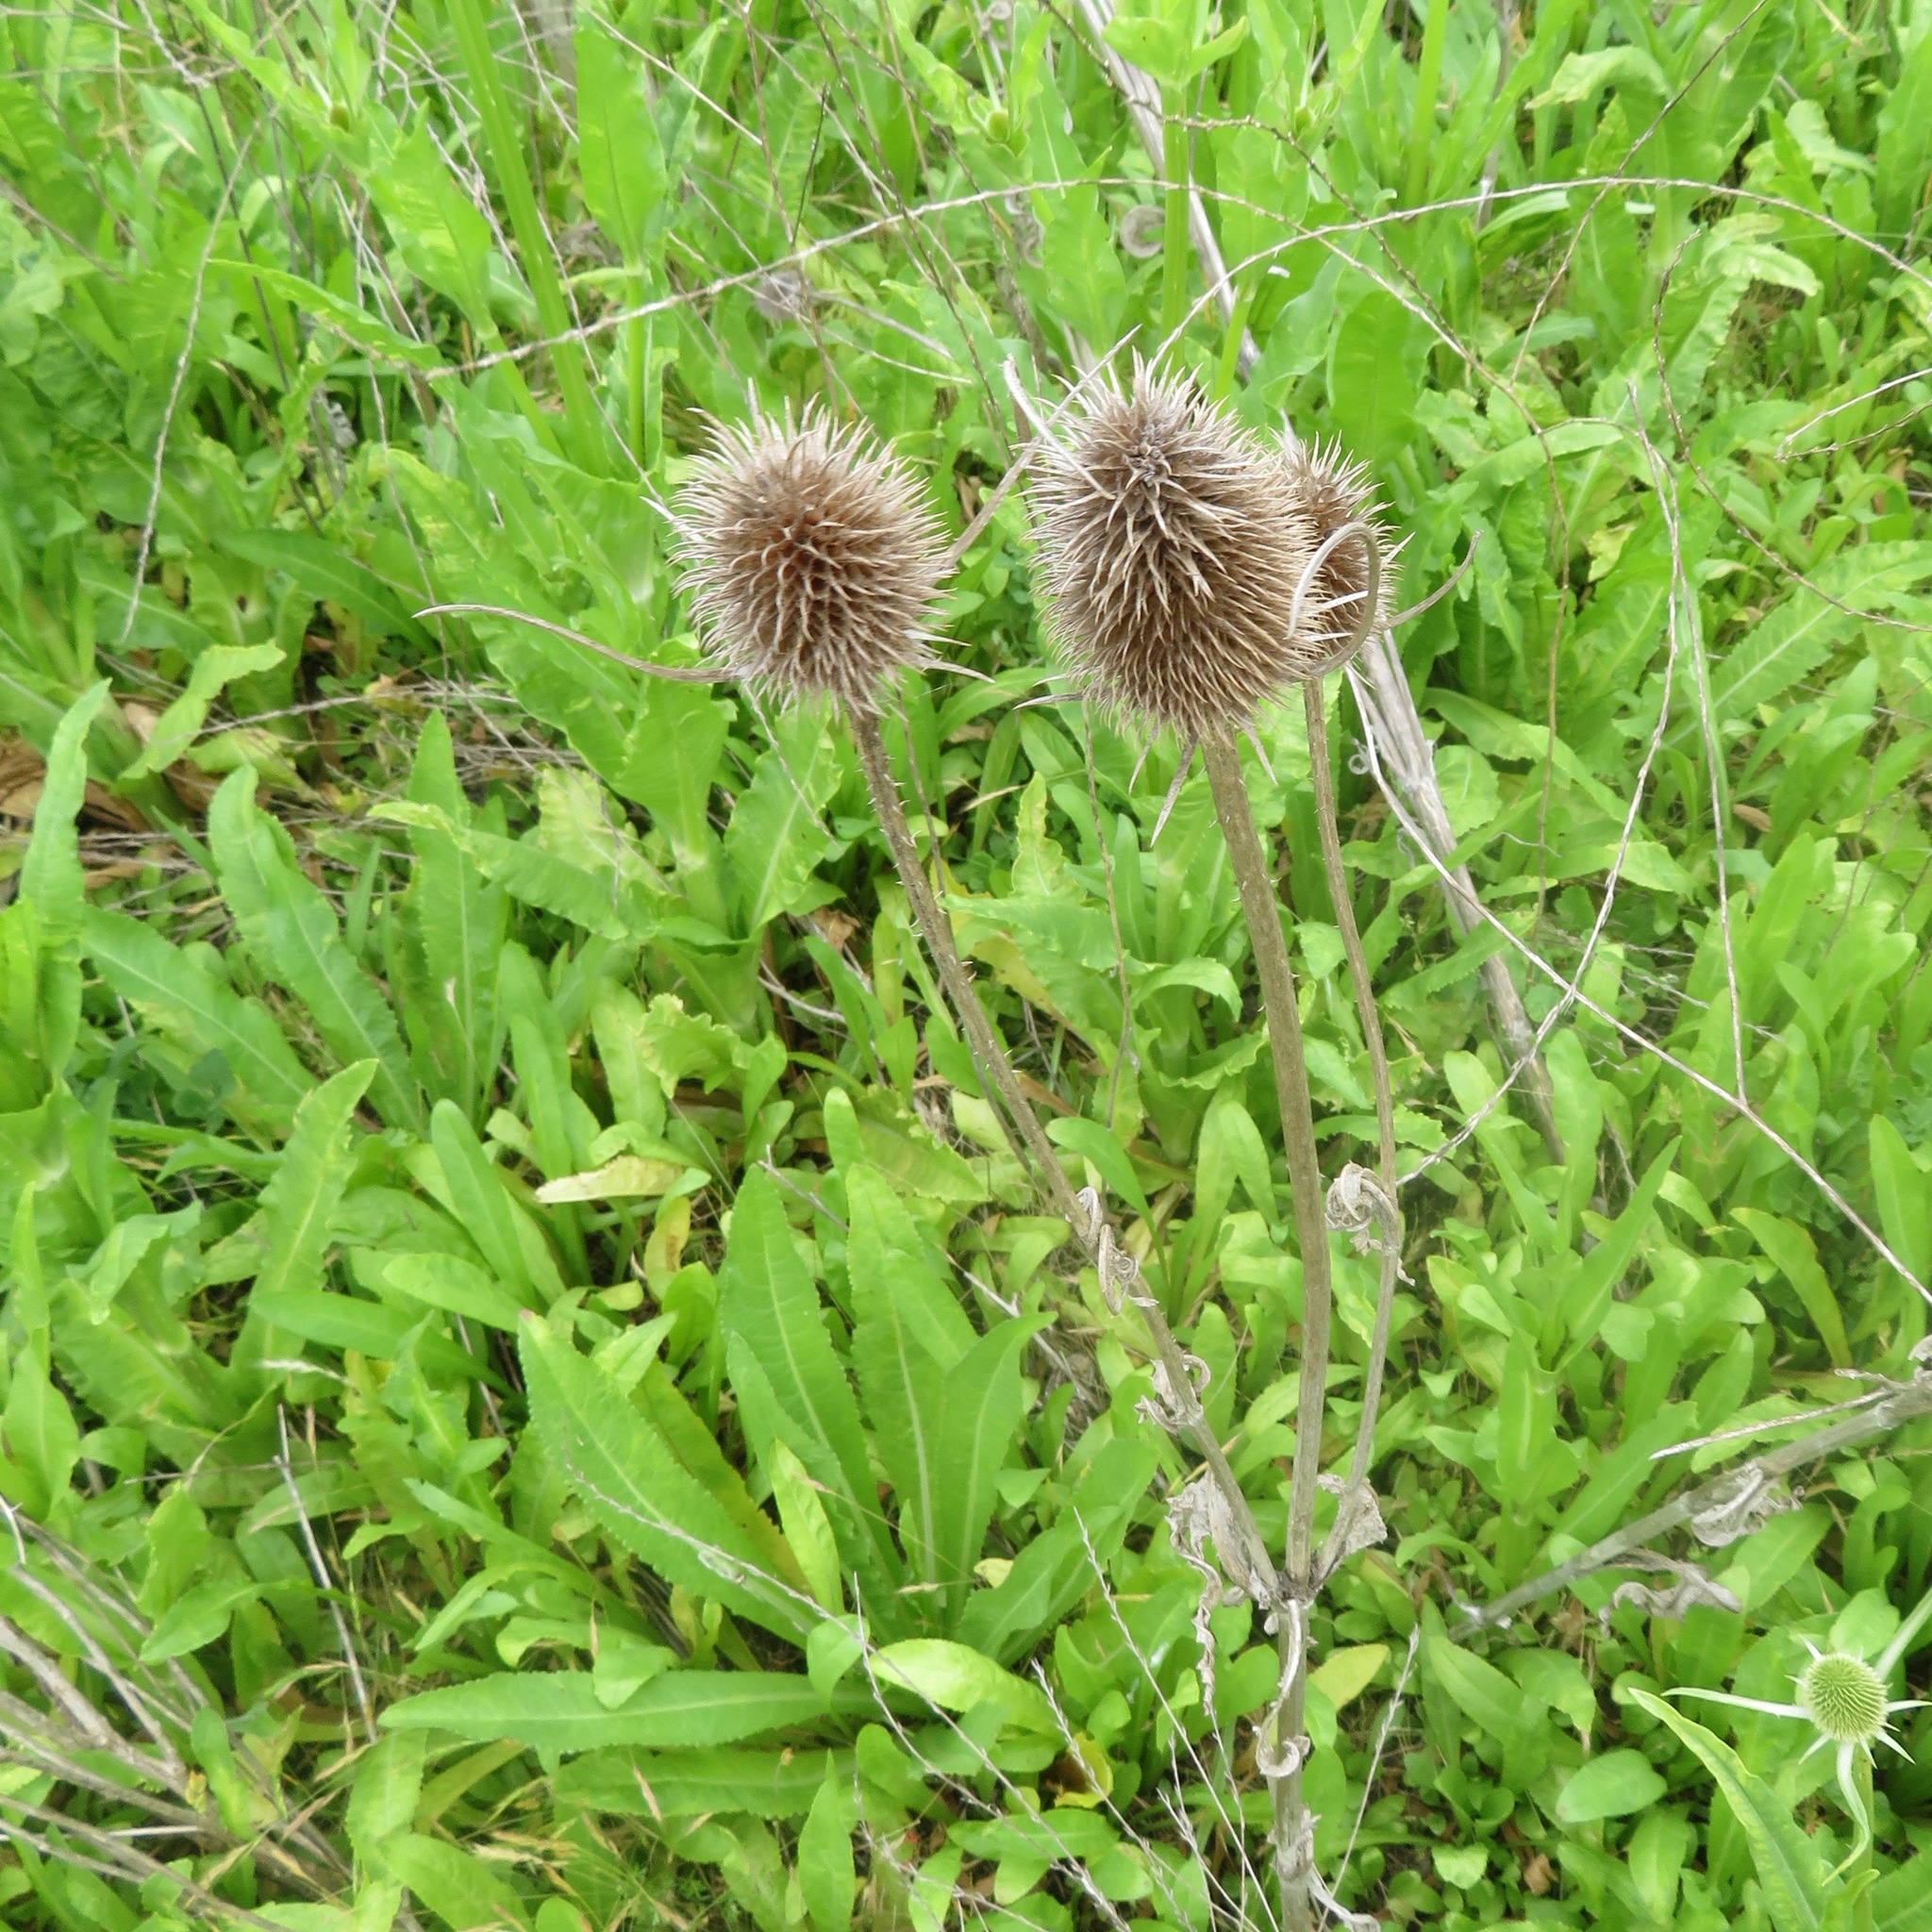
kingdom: Plantae
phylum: Tracheophyta
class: Magnoliopsida
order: Dipsacales
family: Caprifoliaceae
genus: Dipsacus
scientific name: Dipsacus sativus
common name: Fuller's teasel
